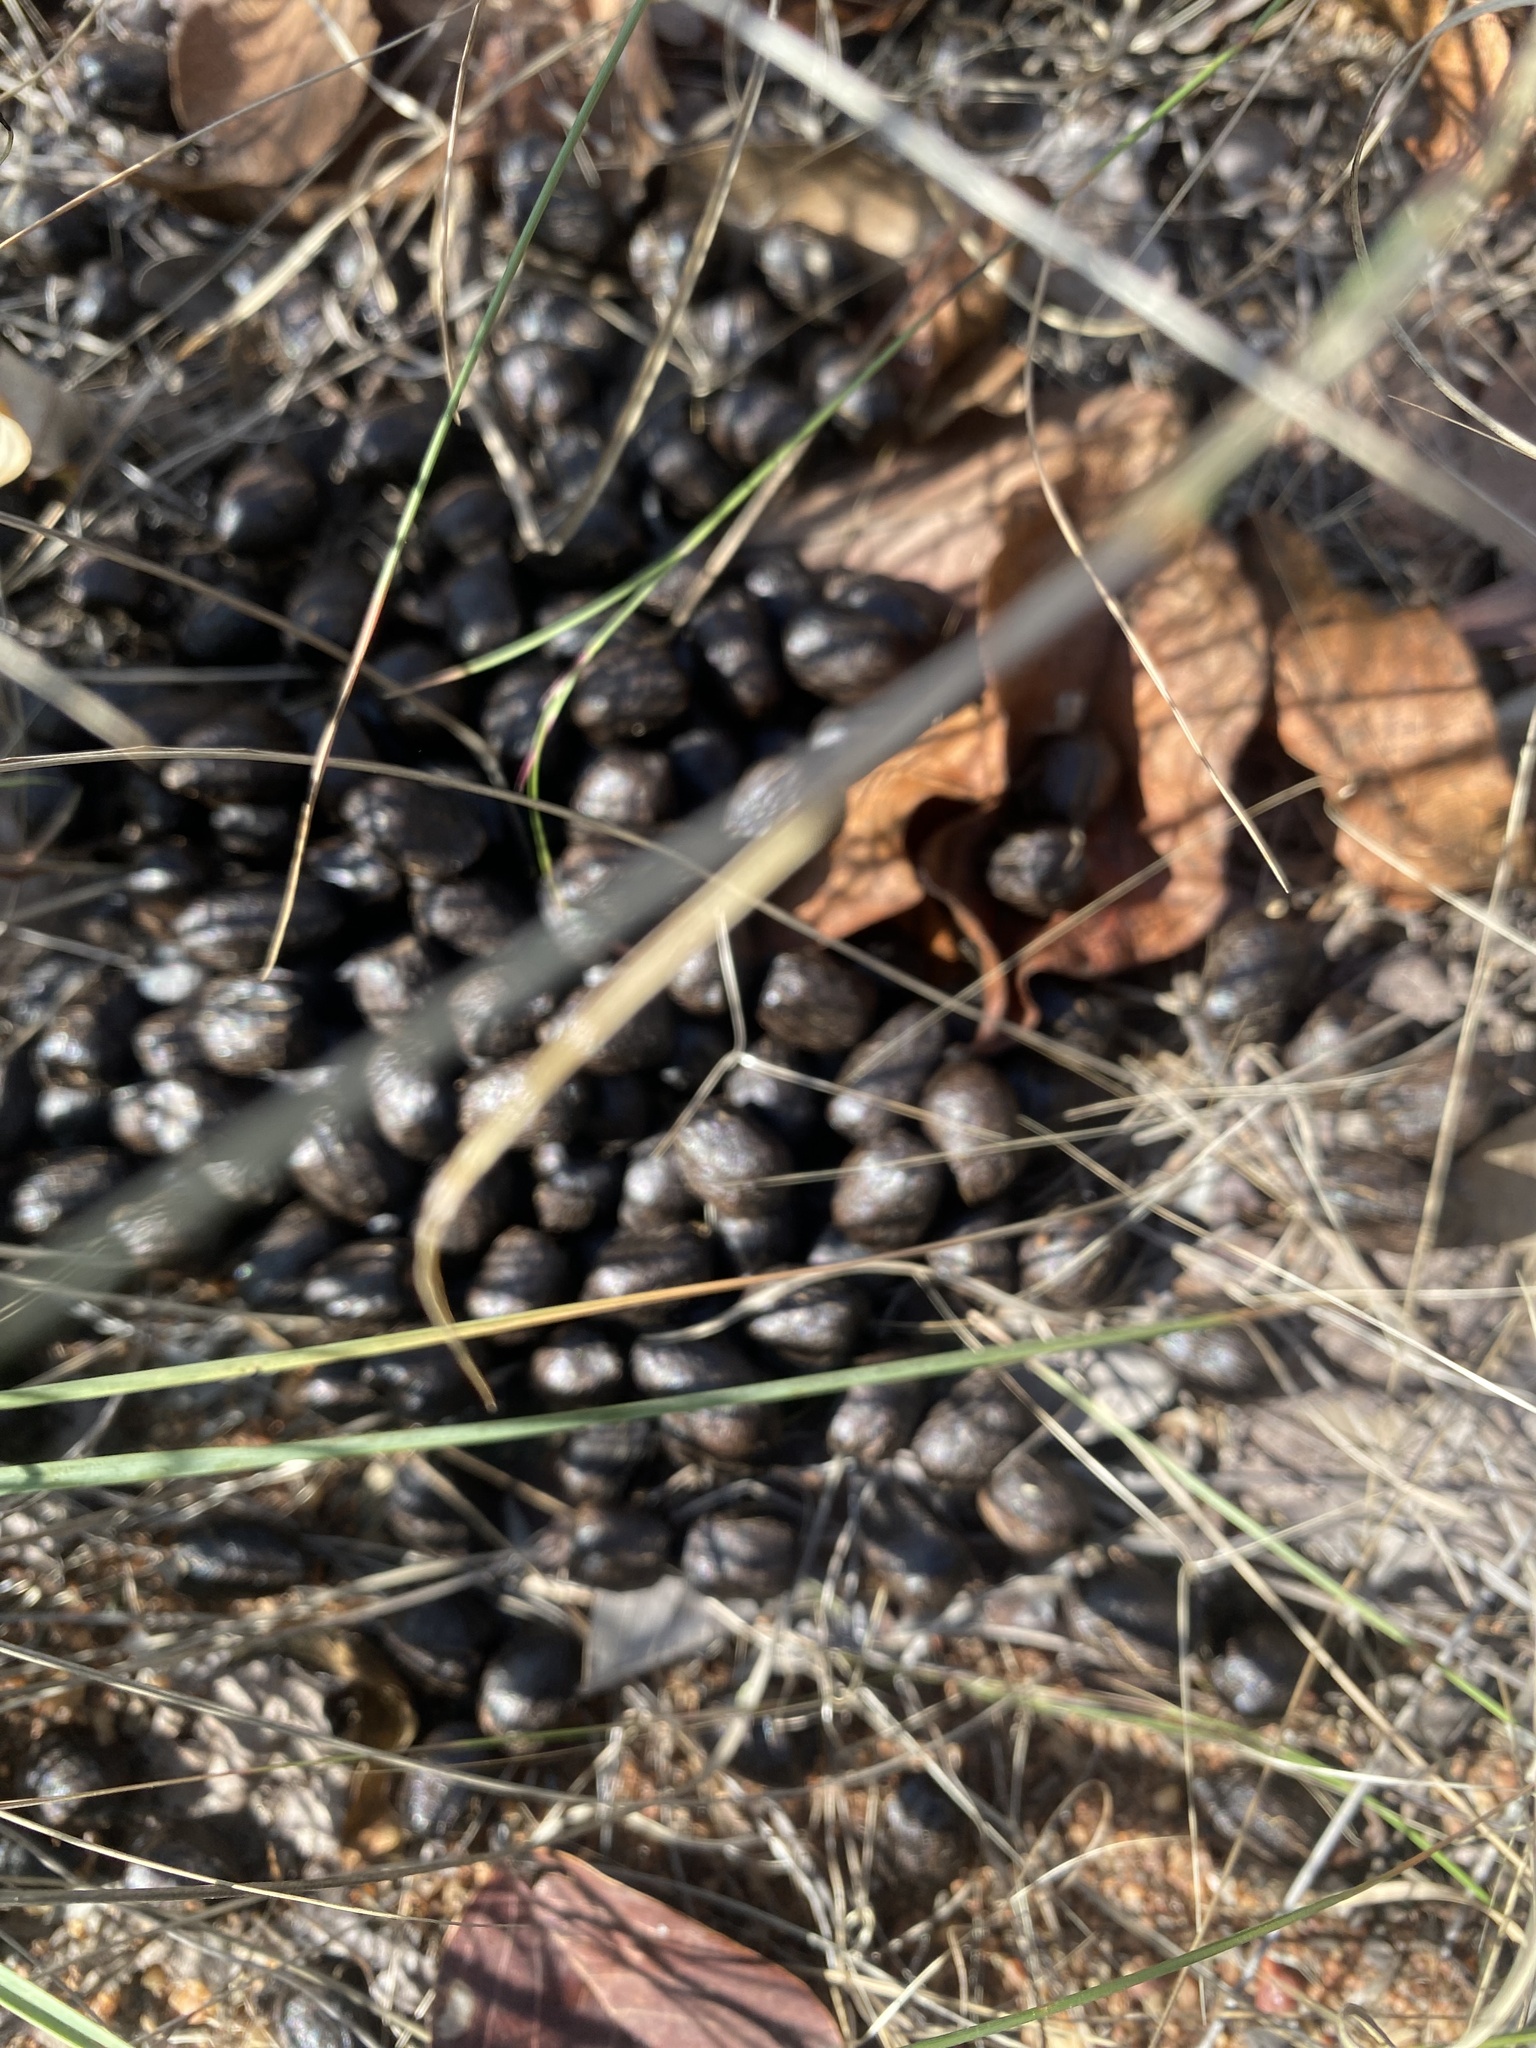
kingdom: Animalia
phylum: Chordata
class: Mammalia
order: Artiodactyla
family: Bovidae
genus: Aepyceros
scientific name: Aepyceros melampus
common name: Impala
